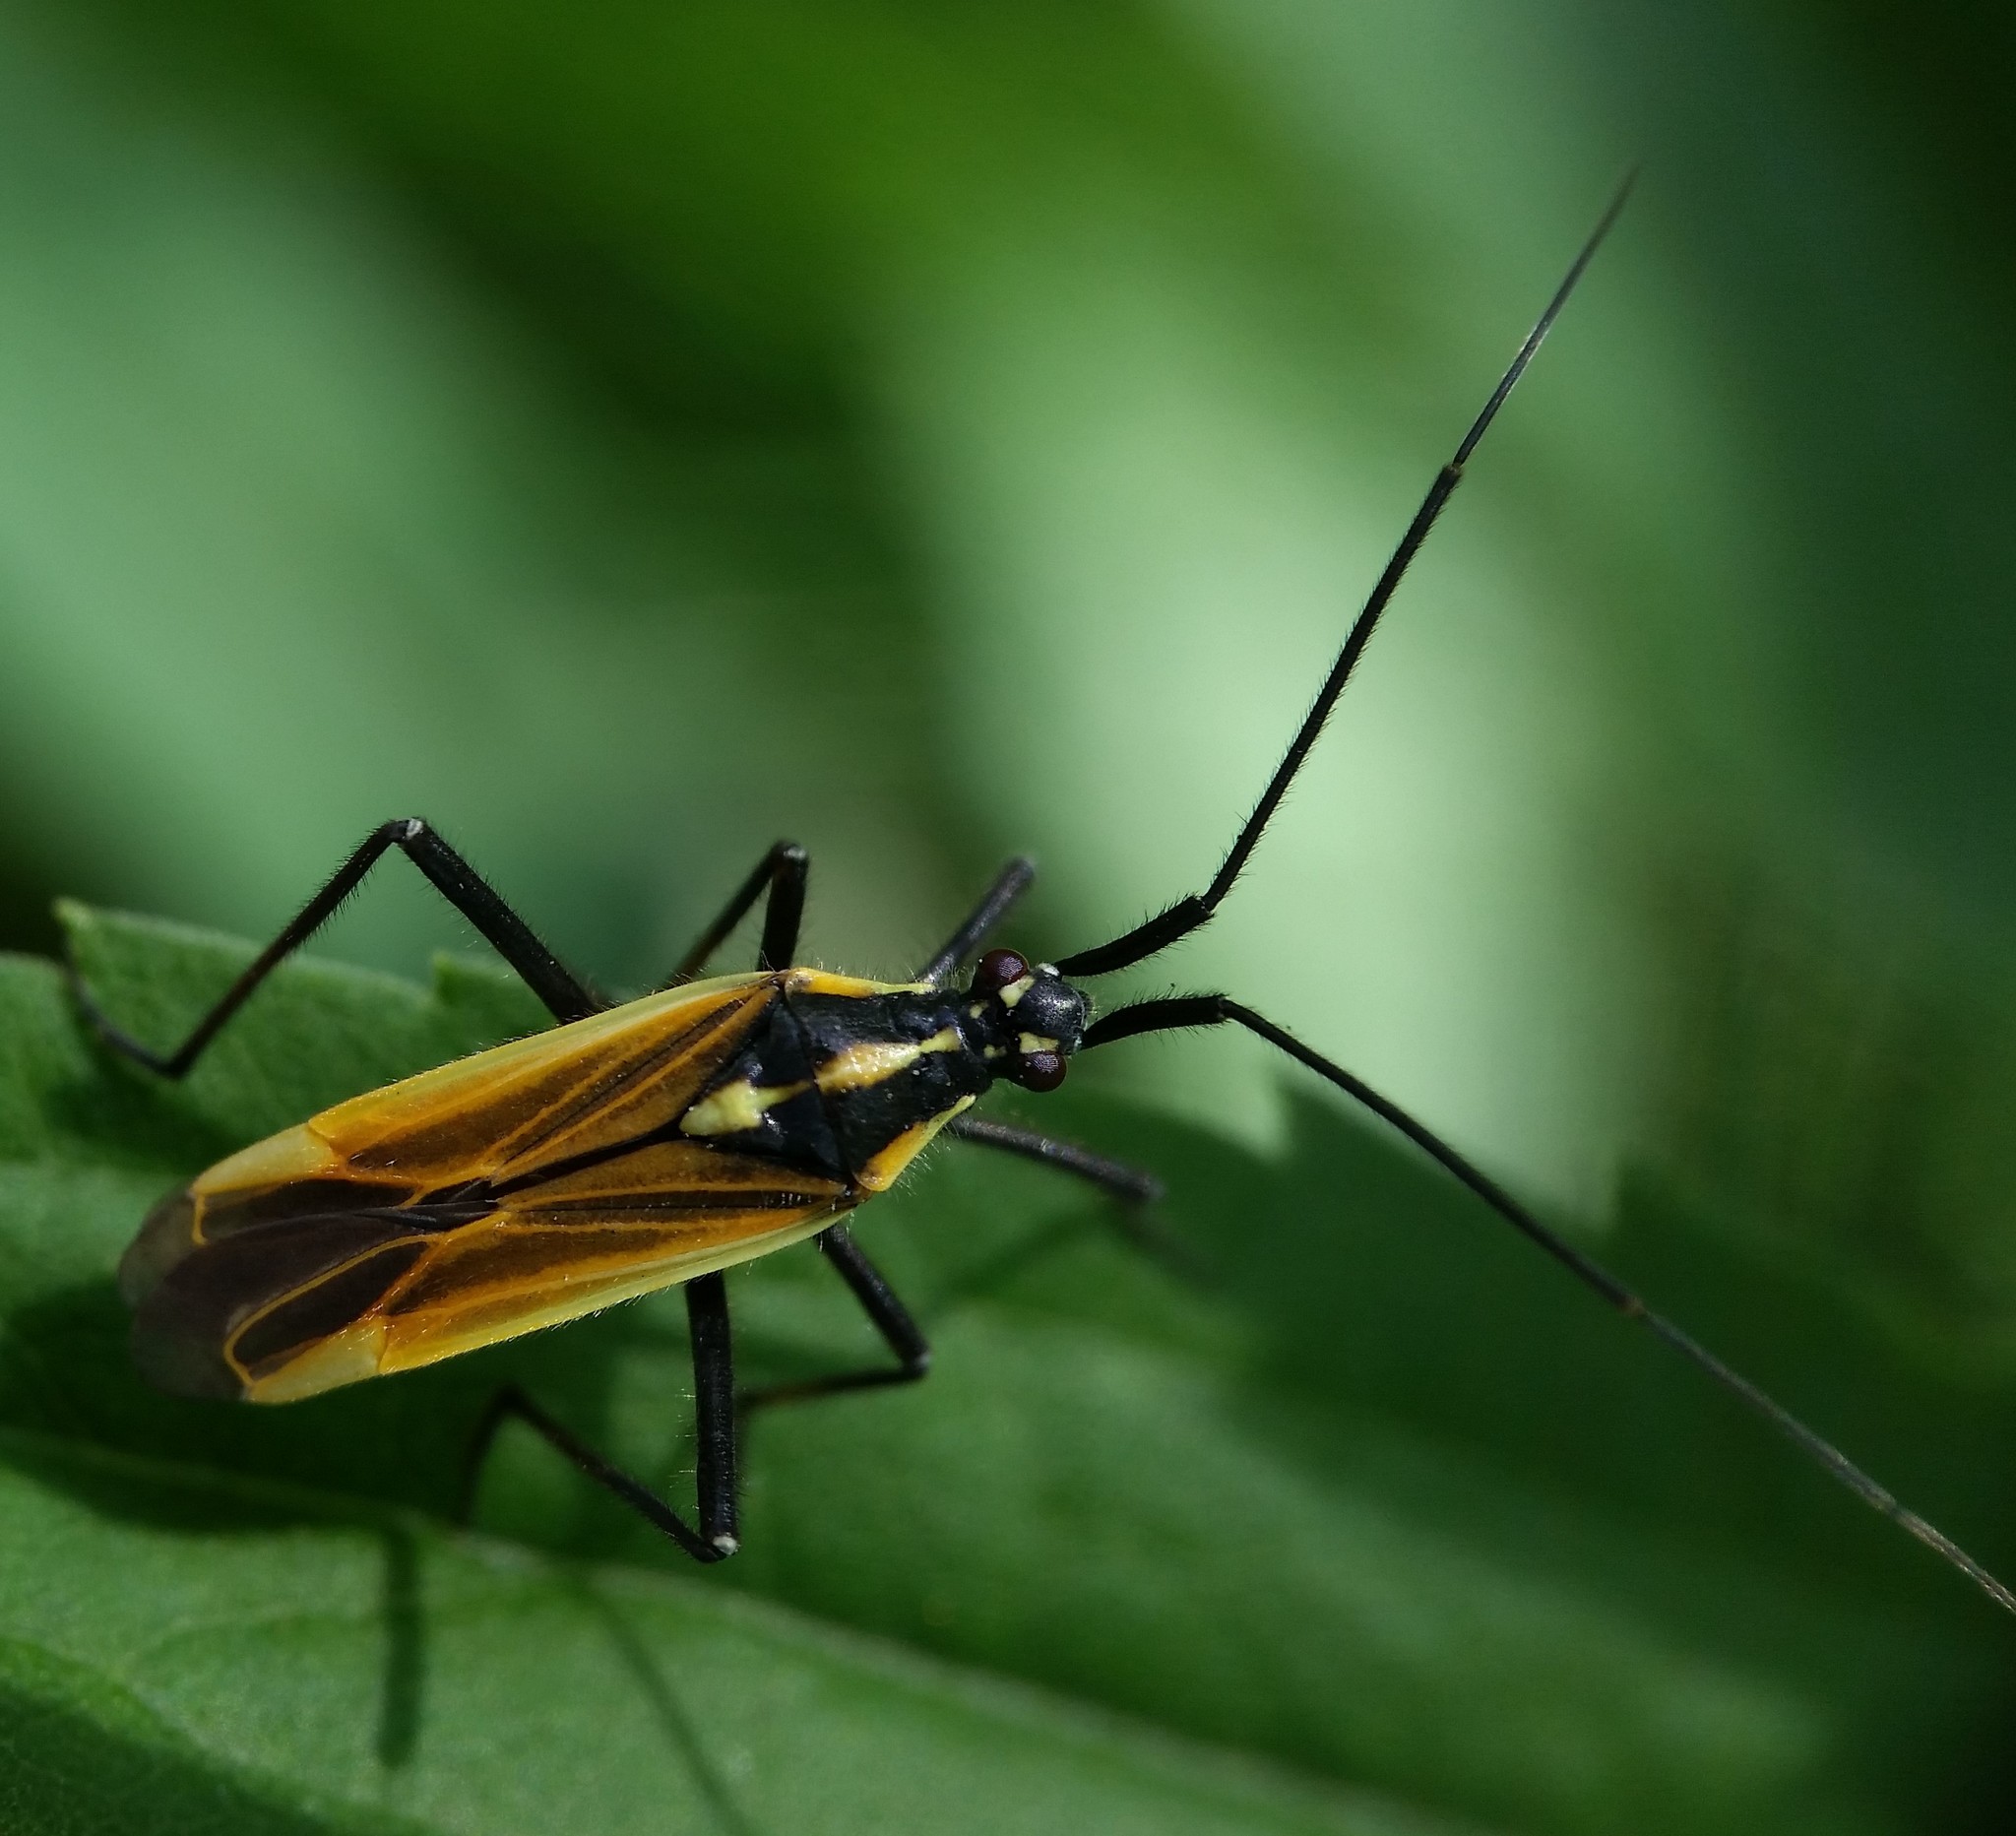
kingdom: Animalia
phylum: Arthropoda
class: Insecta
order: Hemiptera
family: Miridae
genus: Leptopterna
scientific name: Leptopterna dolabrata
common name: Meadow plant bug
